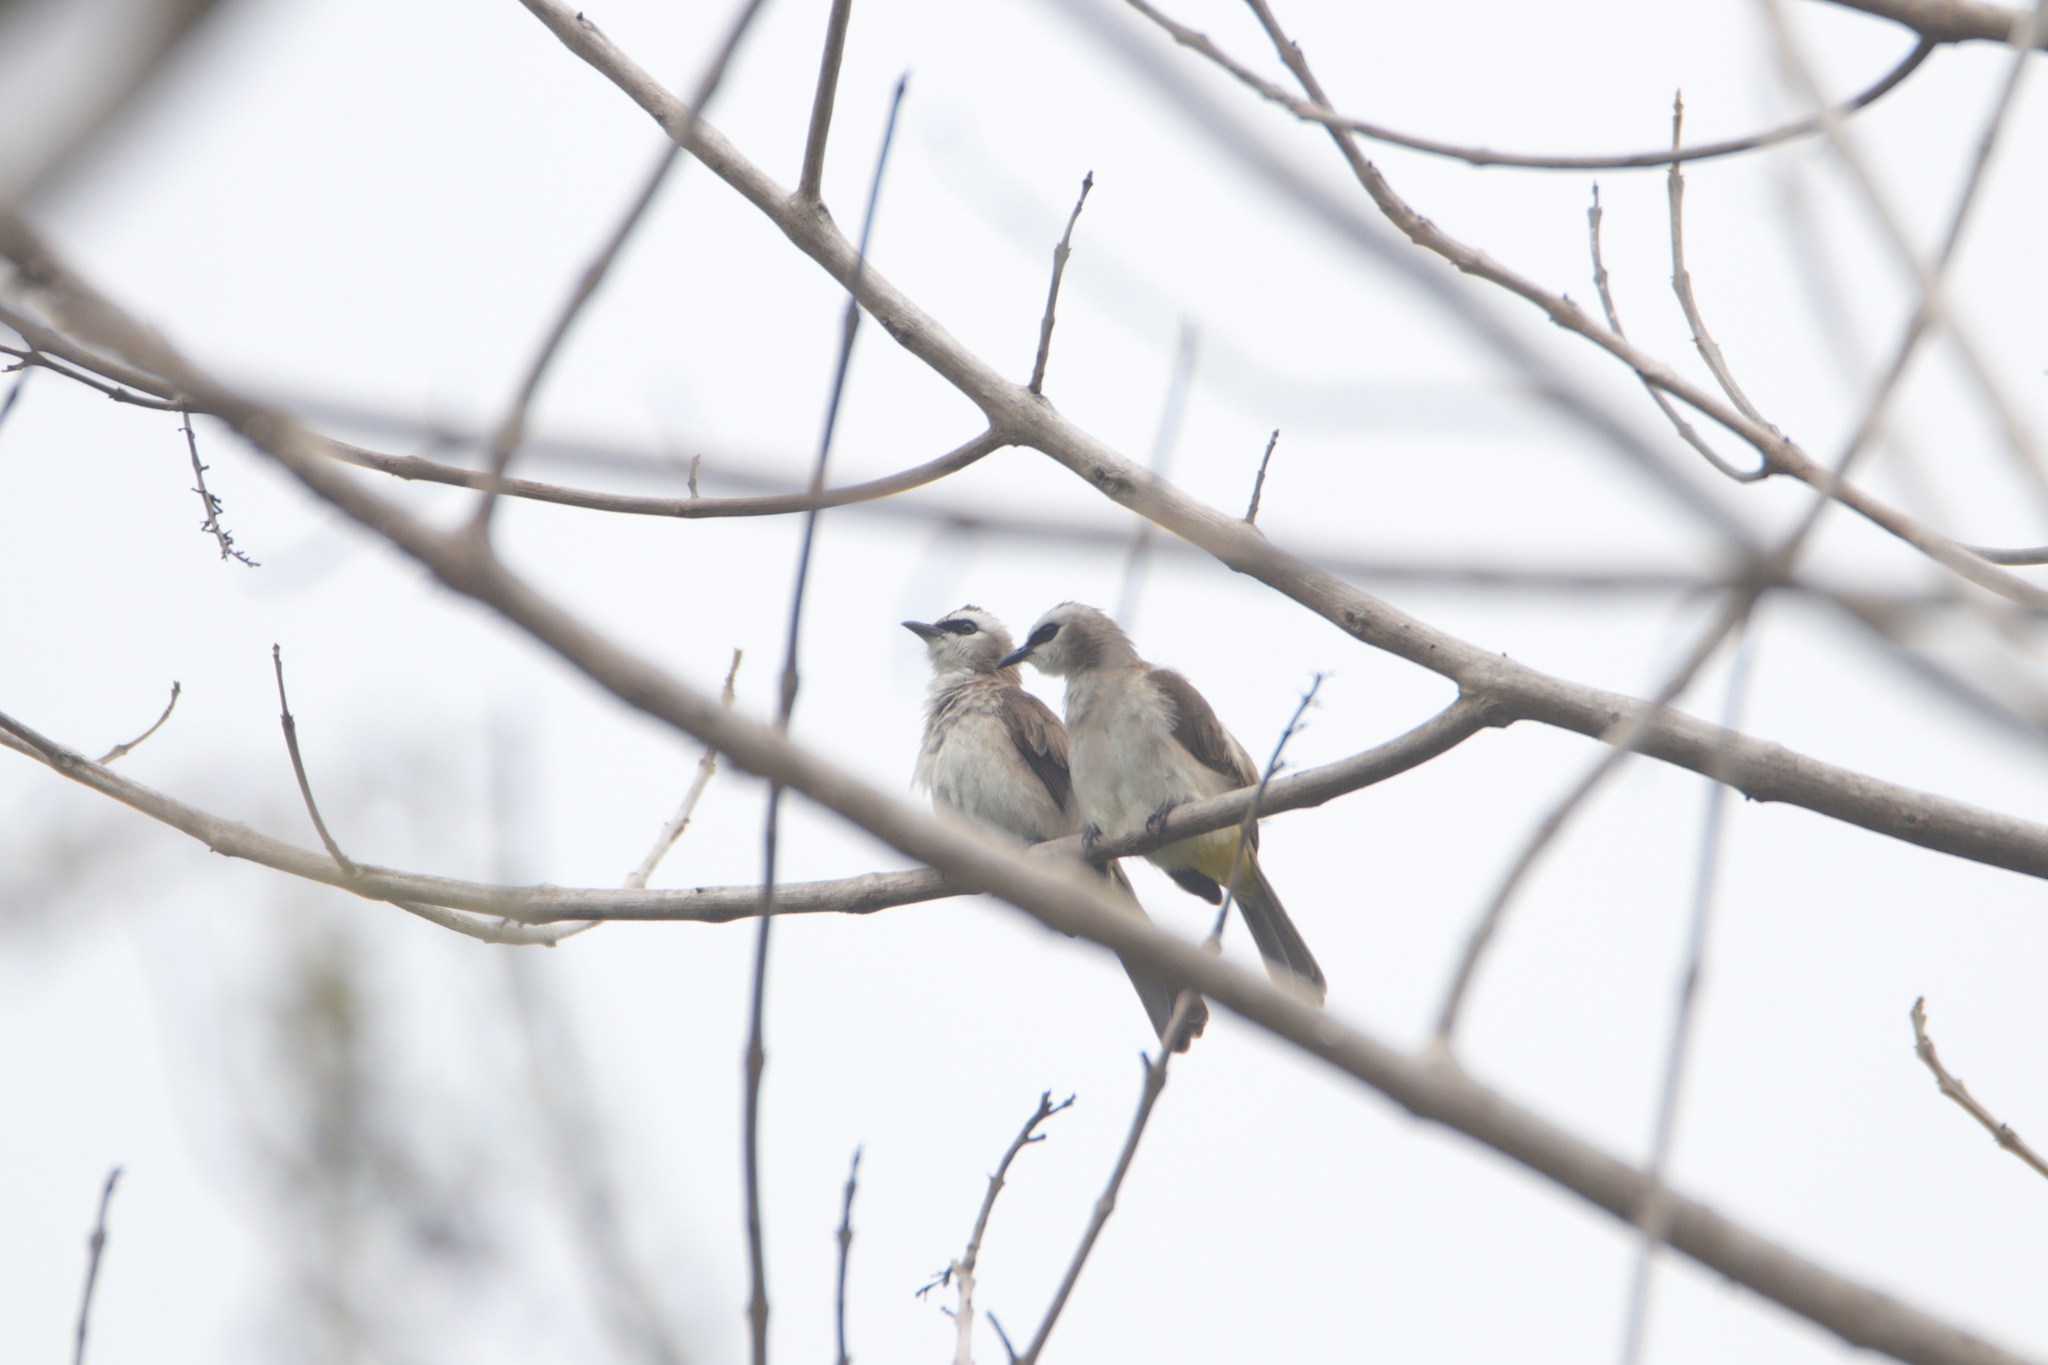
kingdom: Animalia
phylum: Chordata
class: Aves
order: Passeriformes
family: Pycnonotidae
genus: Pycnonotus
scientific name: Pycnonotus goiavier
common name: Yellow-vented bulbul
